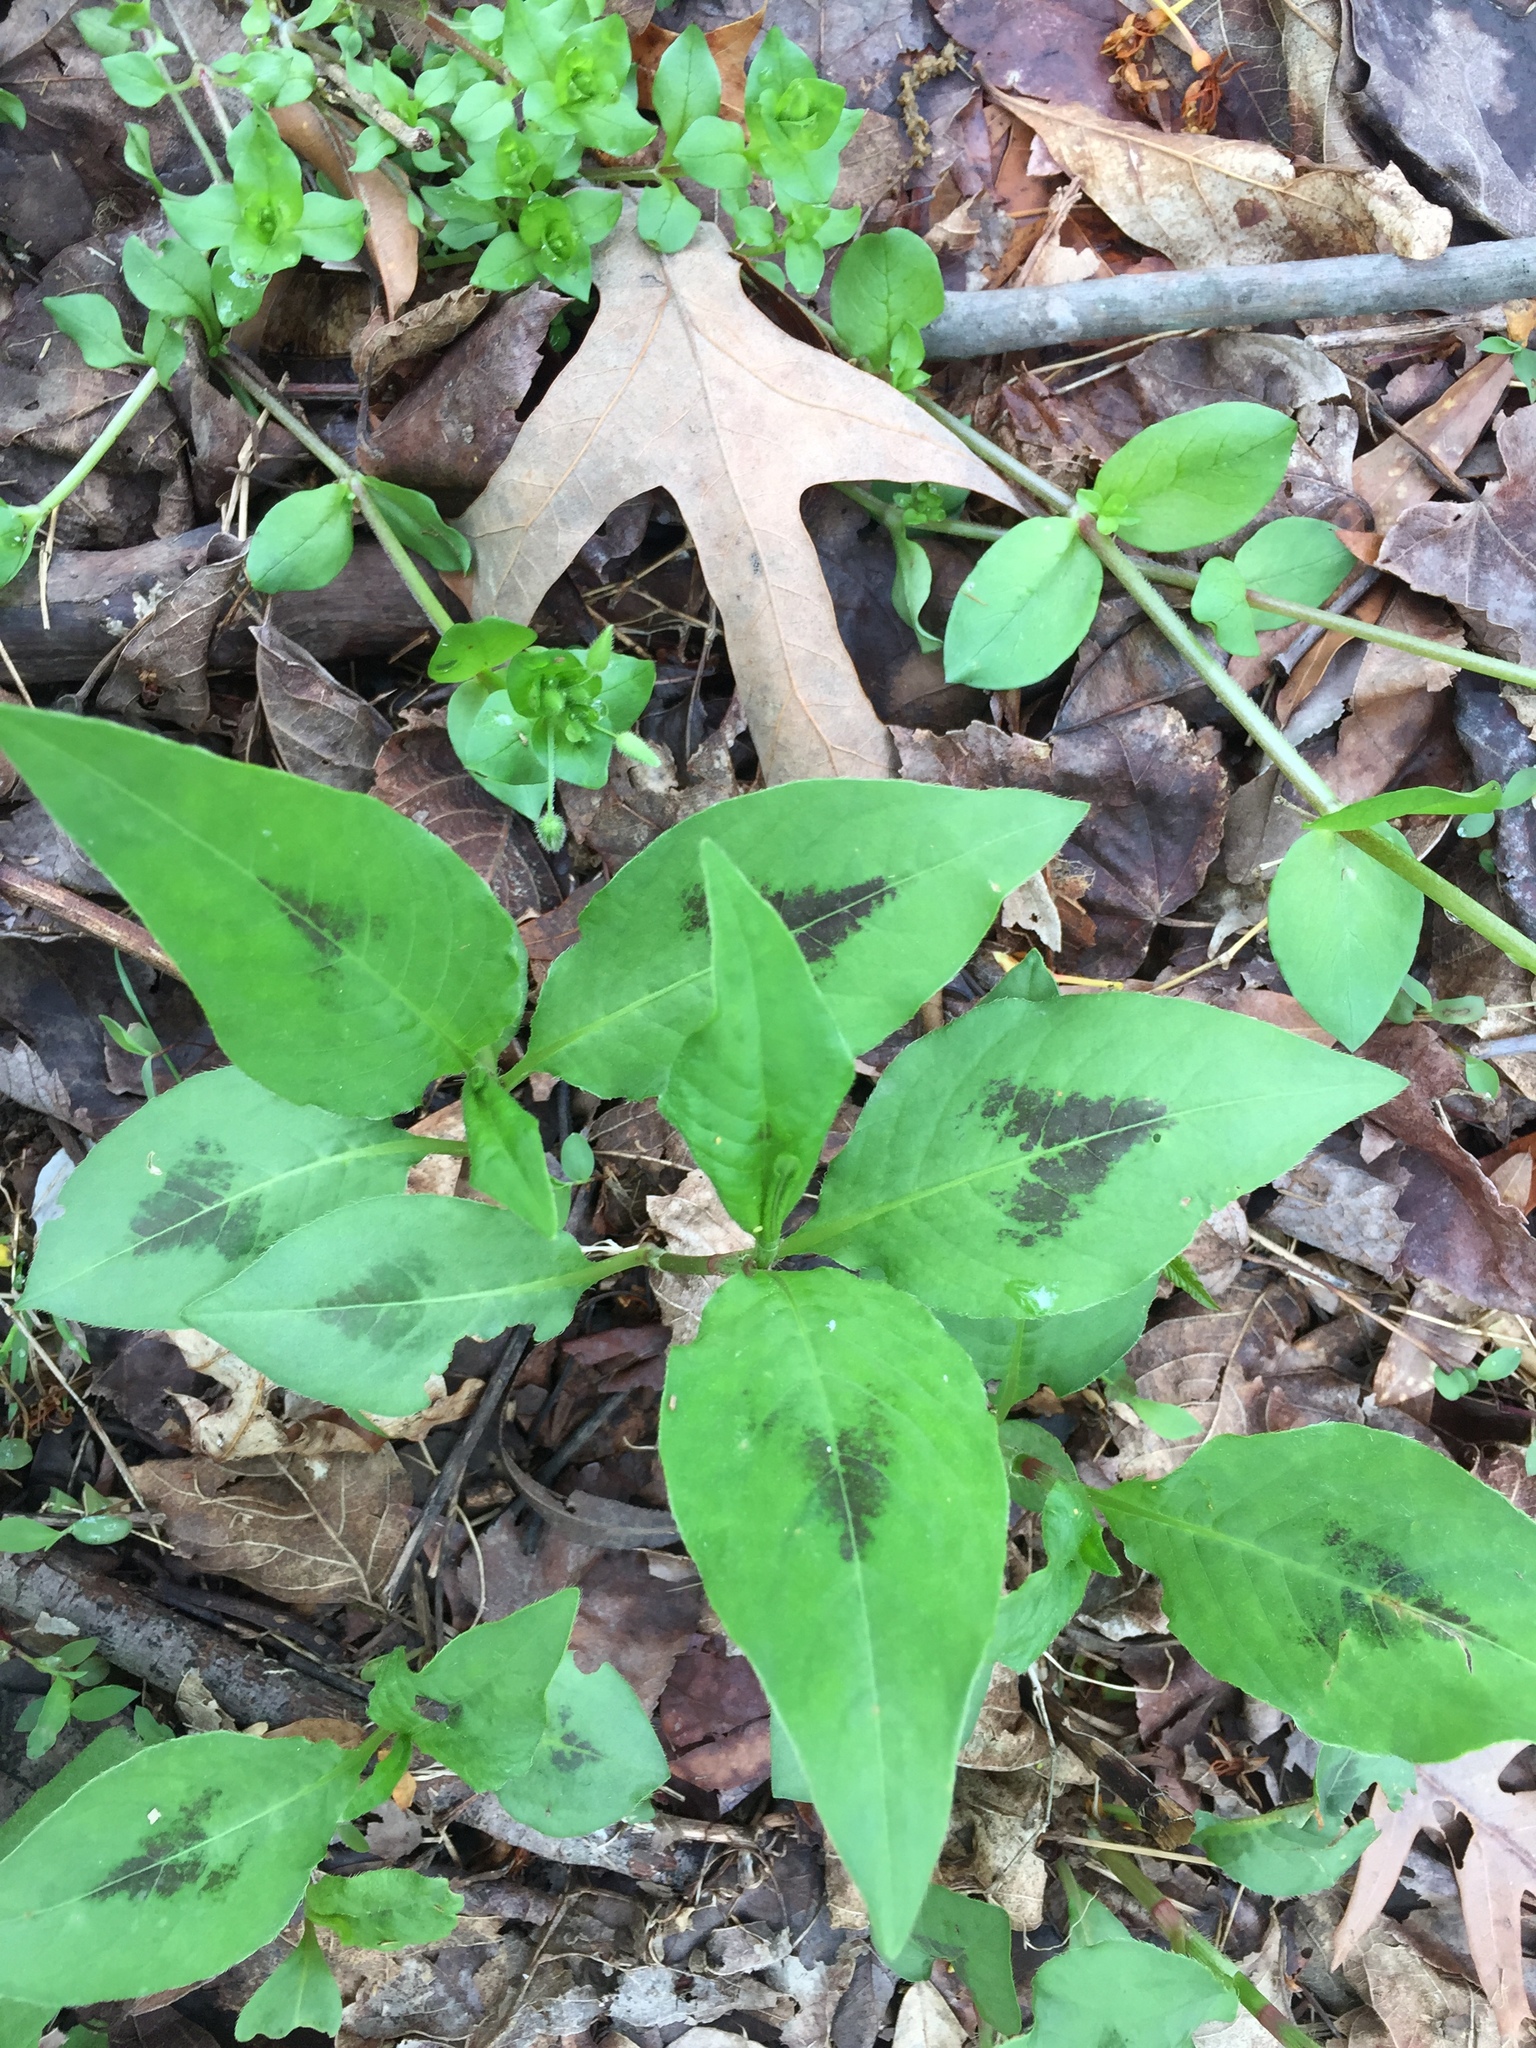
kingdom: Plantae
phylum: Tracheophyta
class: Magnoliopsida
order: Caryophyllales
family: Polygonaceae
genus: Persicaria
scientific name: Persicaria virginiana
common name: Jumpseed
